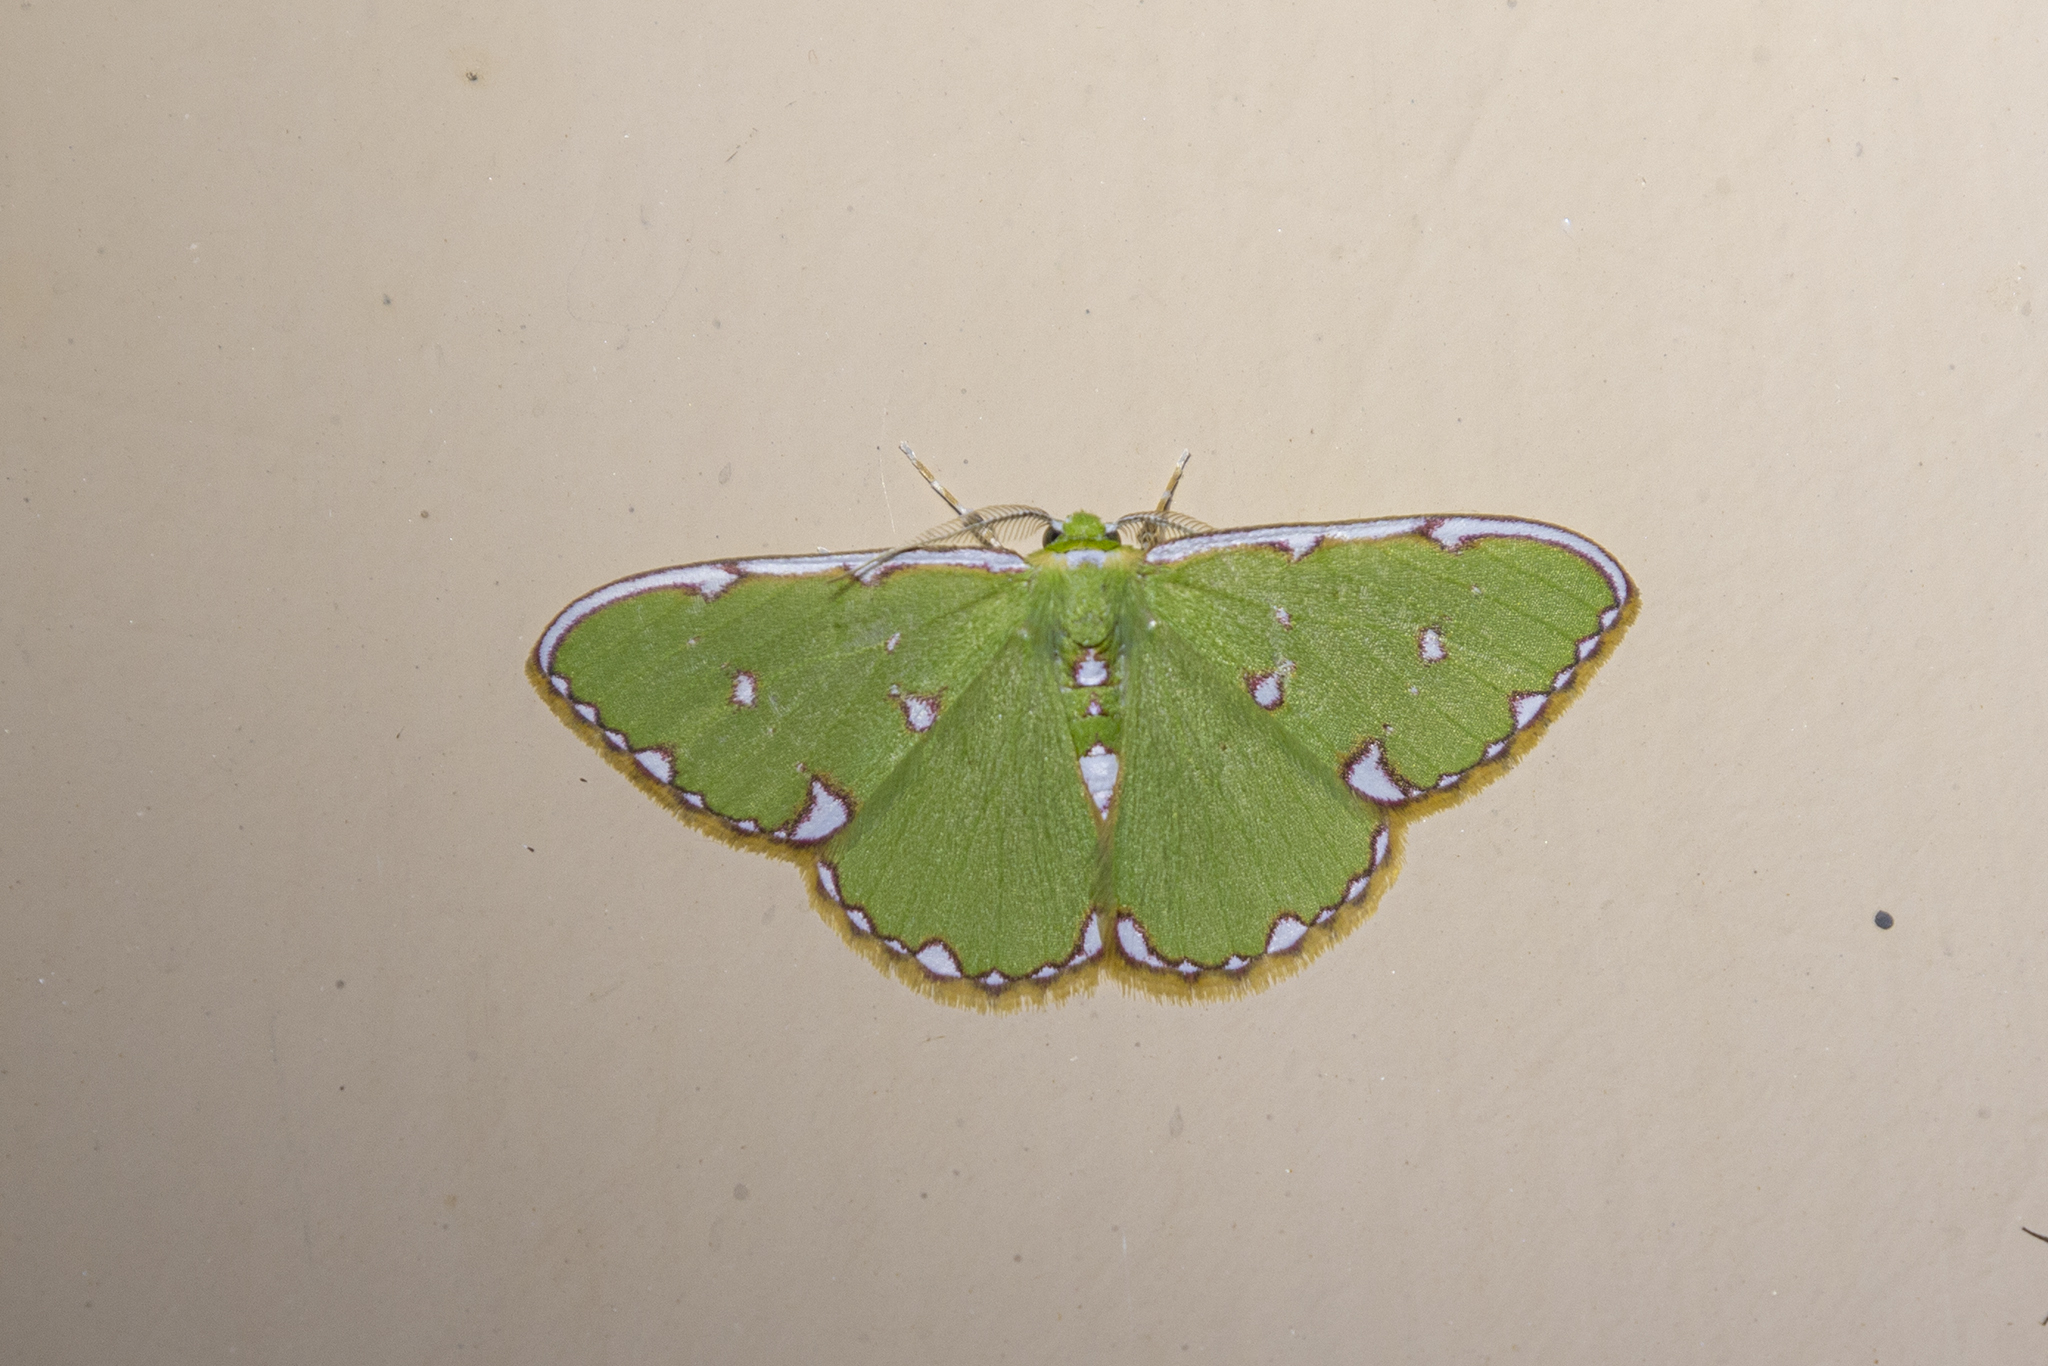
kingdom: Animalia
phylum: Arthropoda
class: Insecta
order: Lepidoptera
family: Geometridae
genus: Argyrocosma
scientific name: Argyrocosma inductaria
